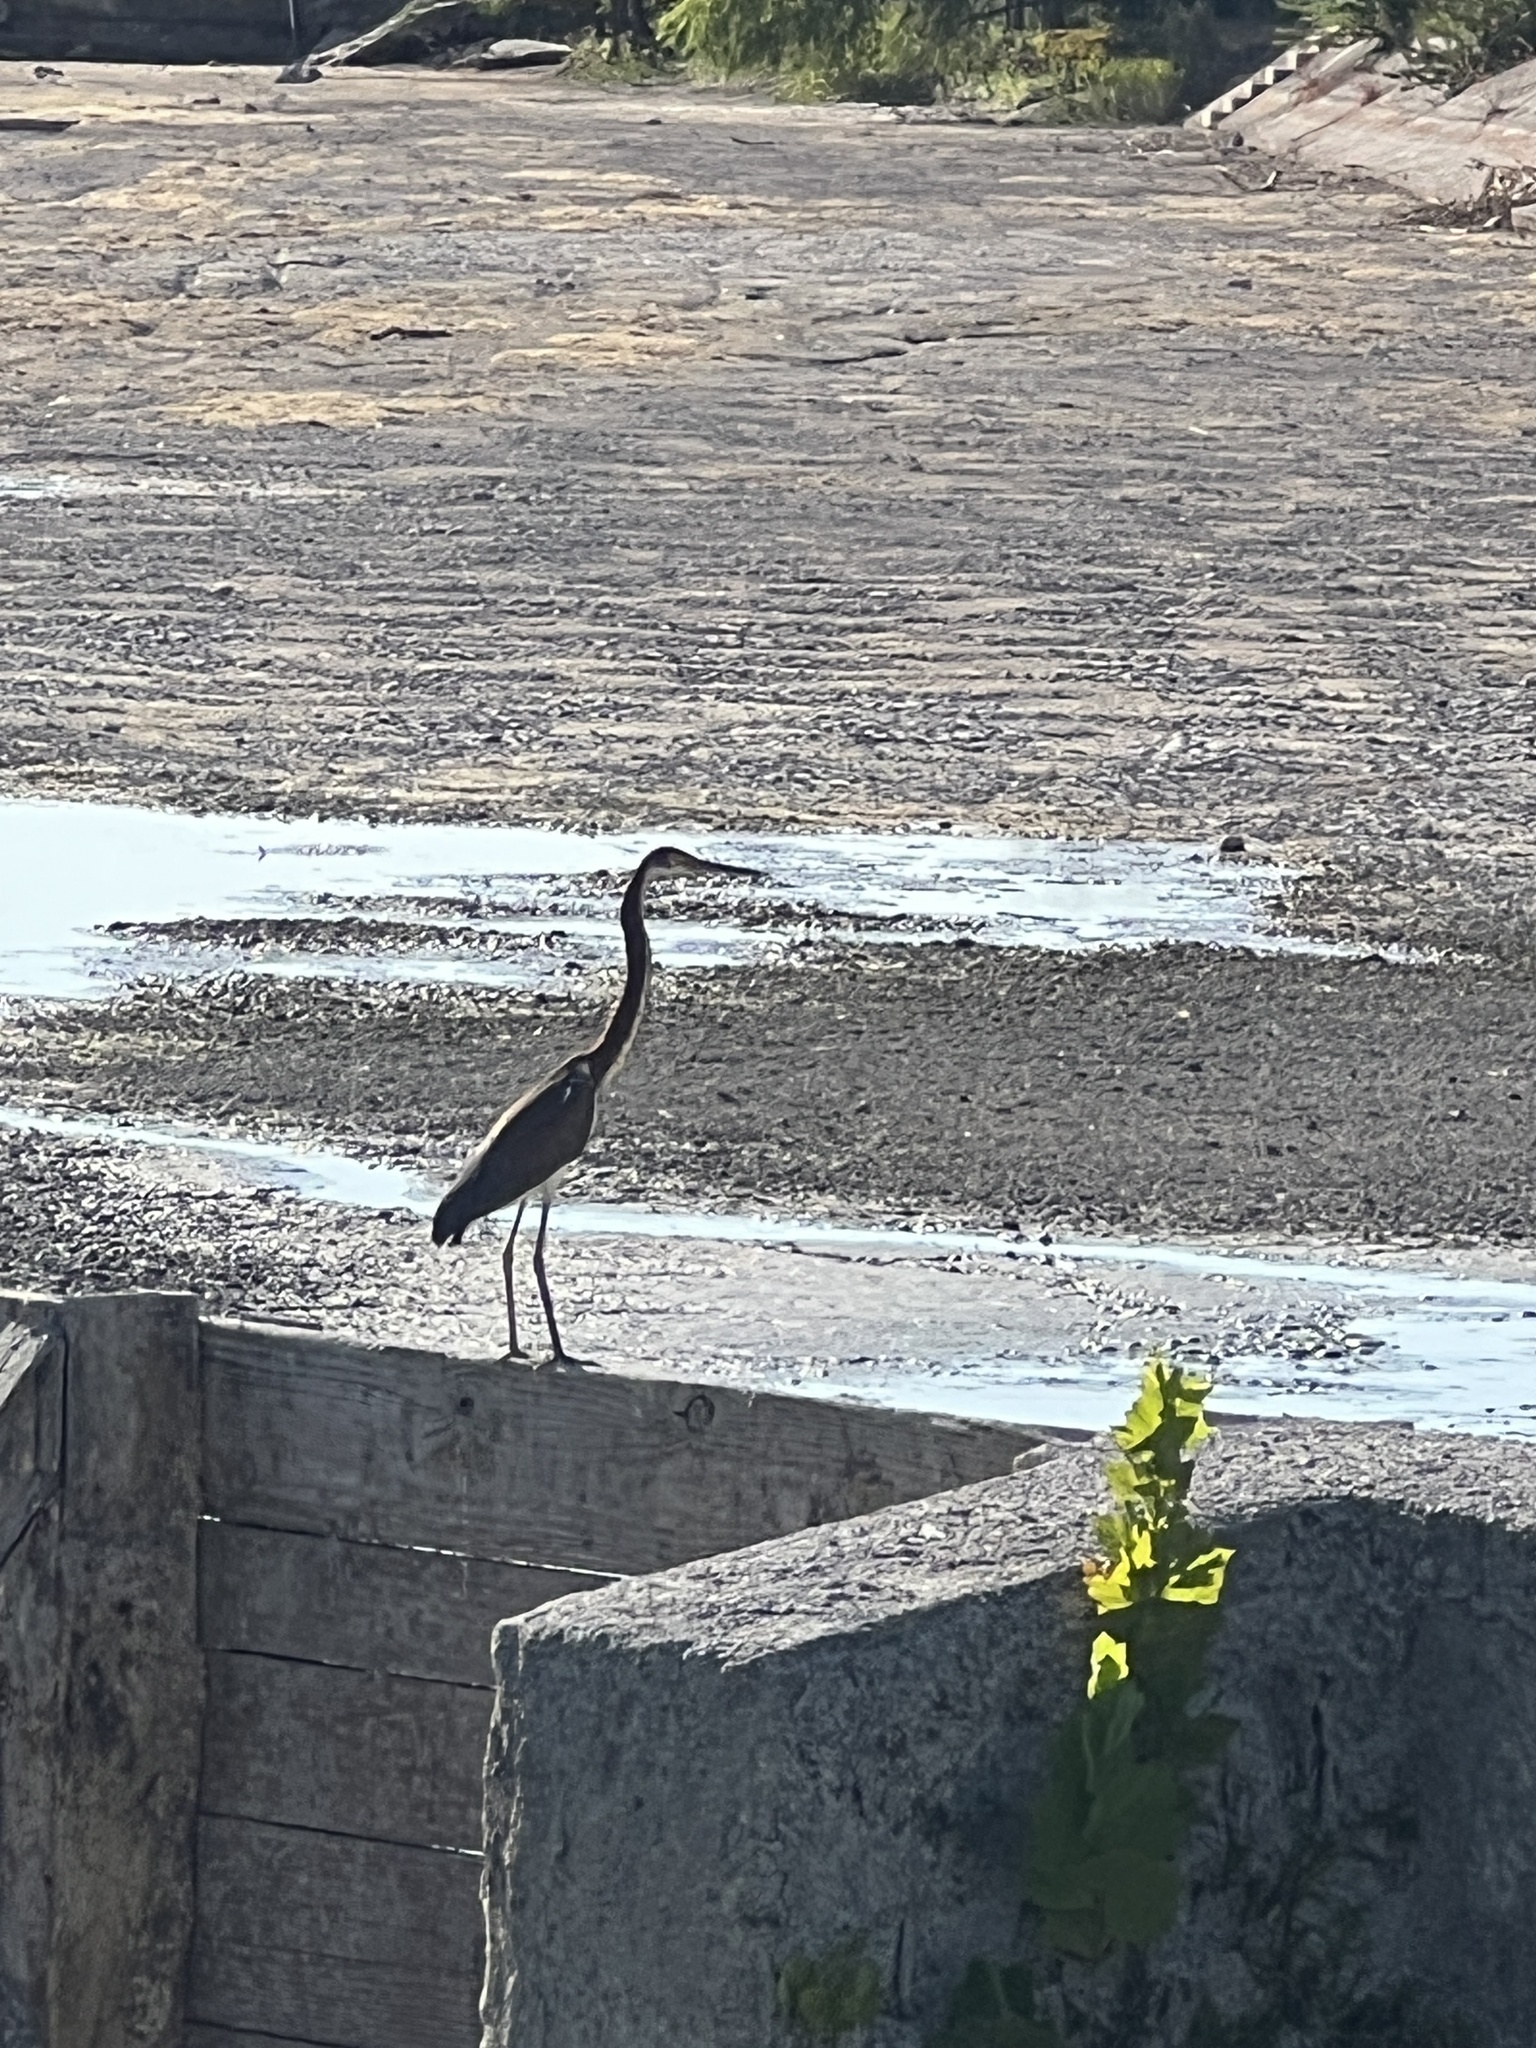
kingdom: Animalia
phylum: Chordata
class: Aves
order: Pelecaniformes
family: Ardeidae
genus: Egretta
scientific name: Egretta tricolor
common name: Tricolored heron
